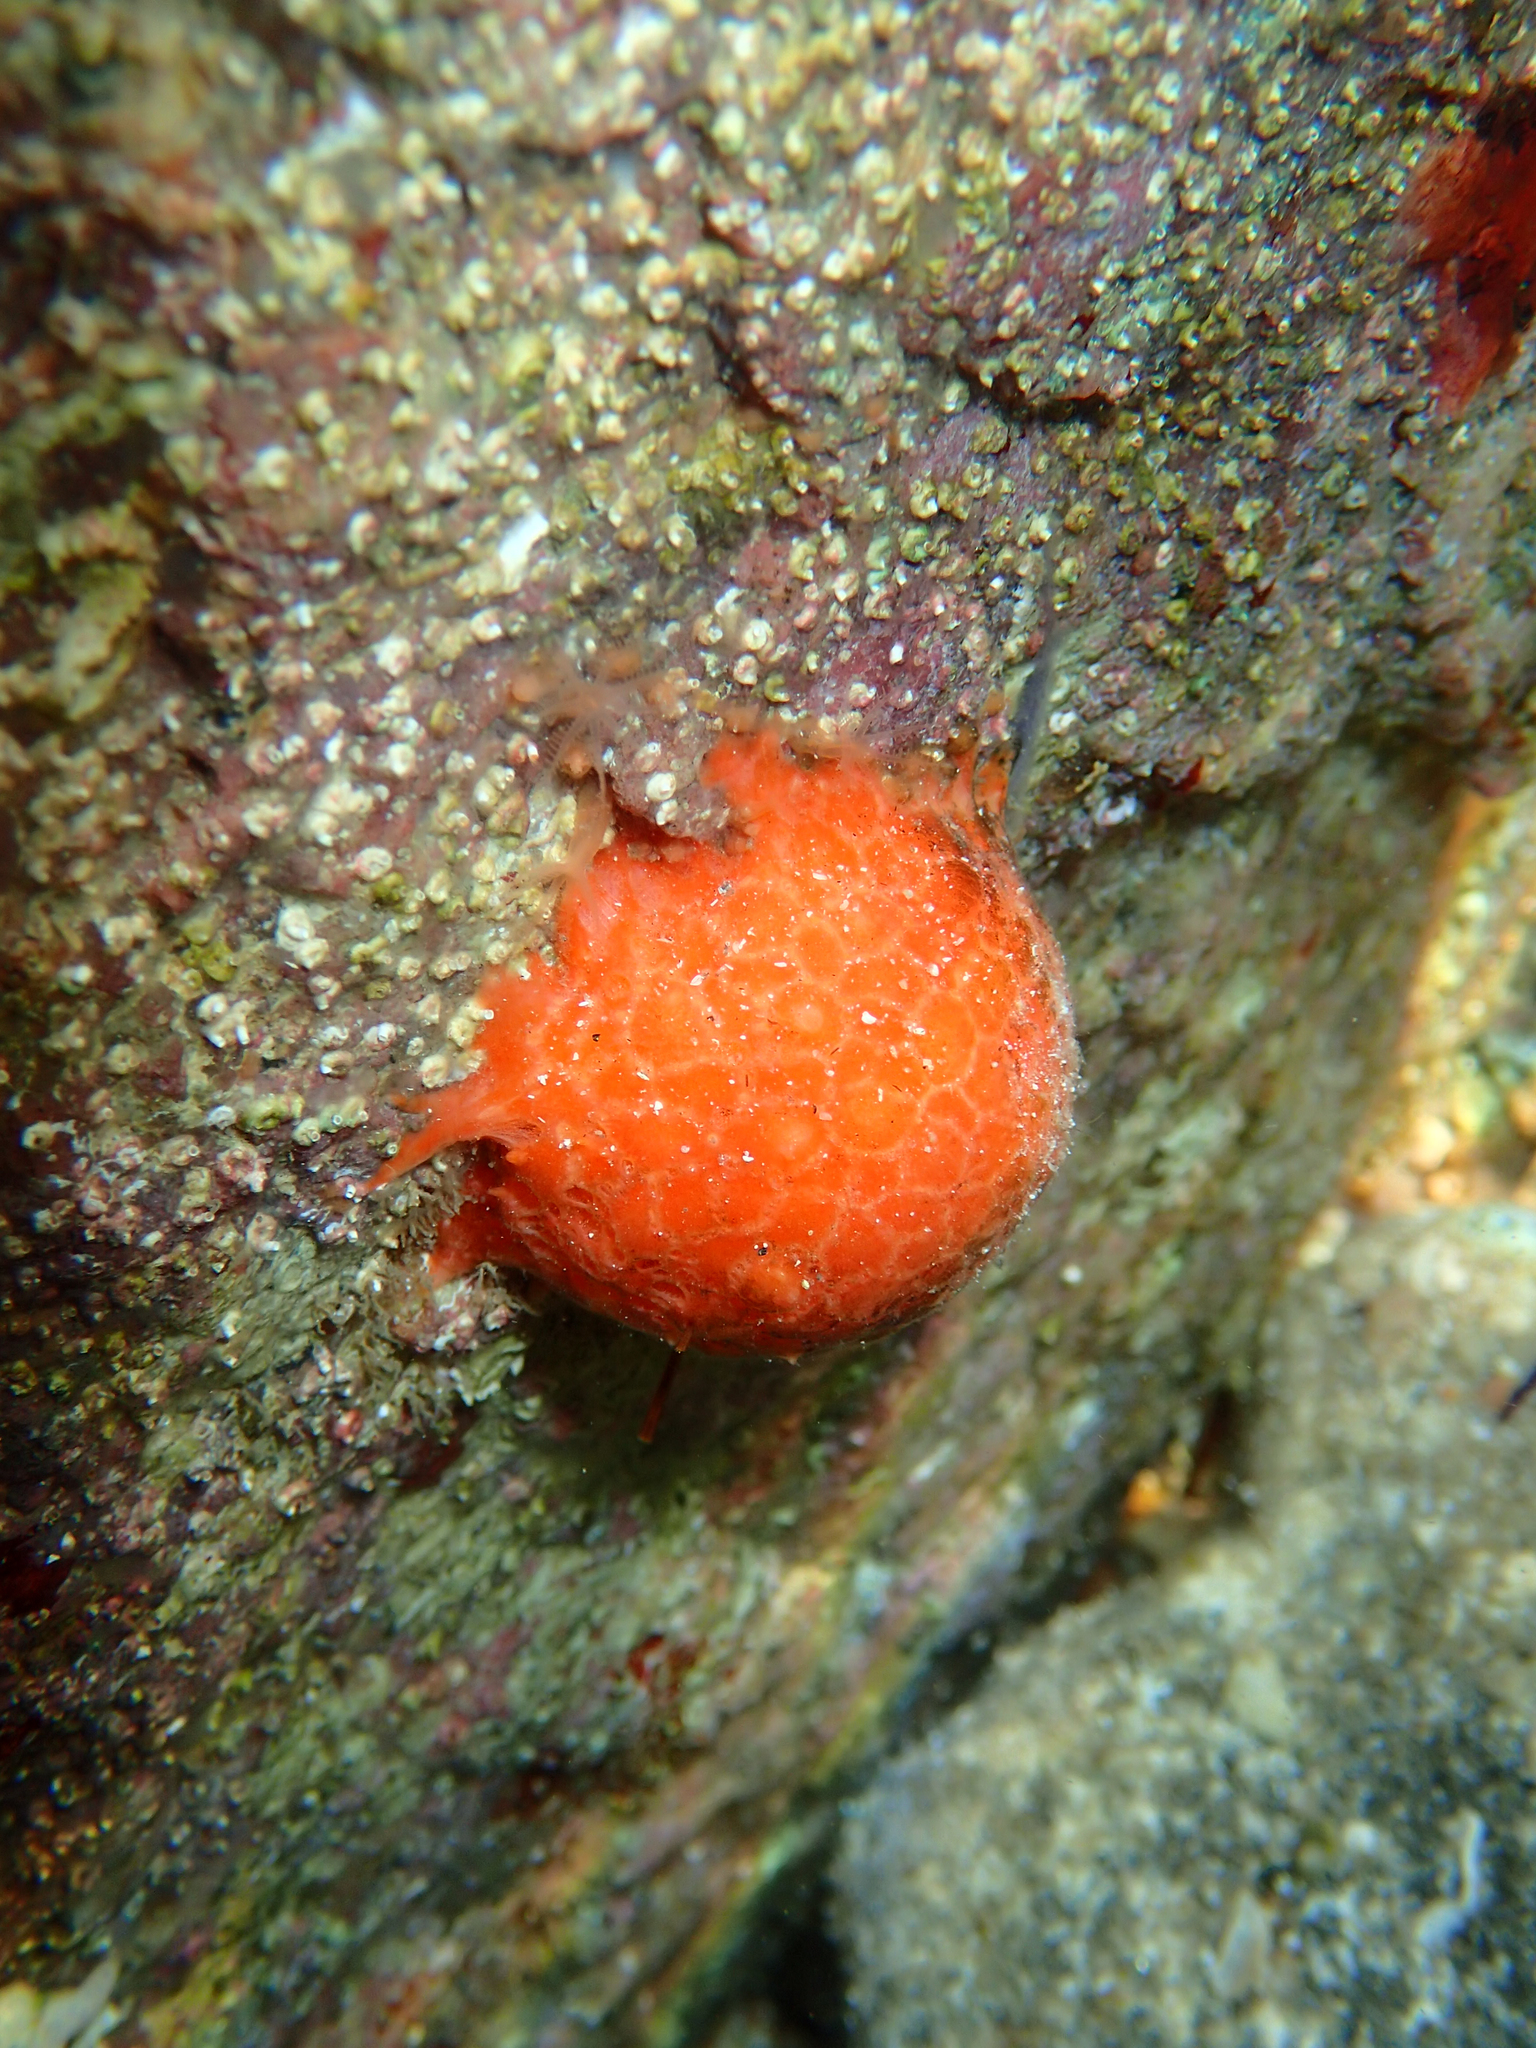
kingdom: Animalia
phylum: Porifera
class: Demospongiae
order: Tethyida
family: Tethyidae
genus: Tethya
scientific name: Tethya aurantium
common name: Golf ball sponge
